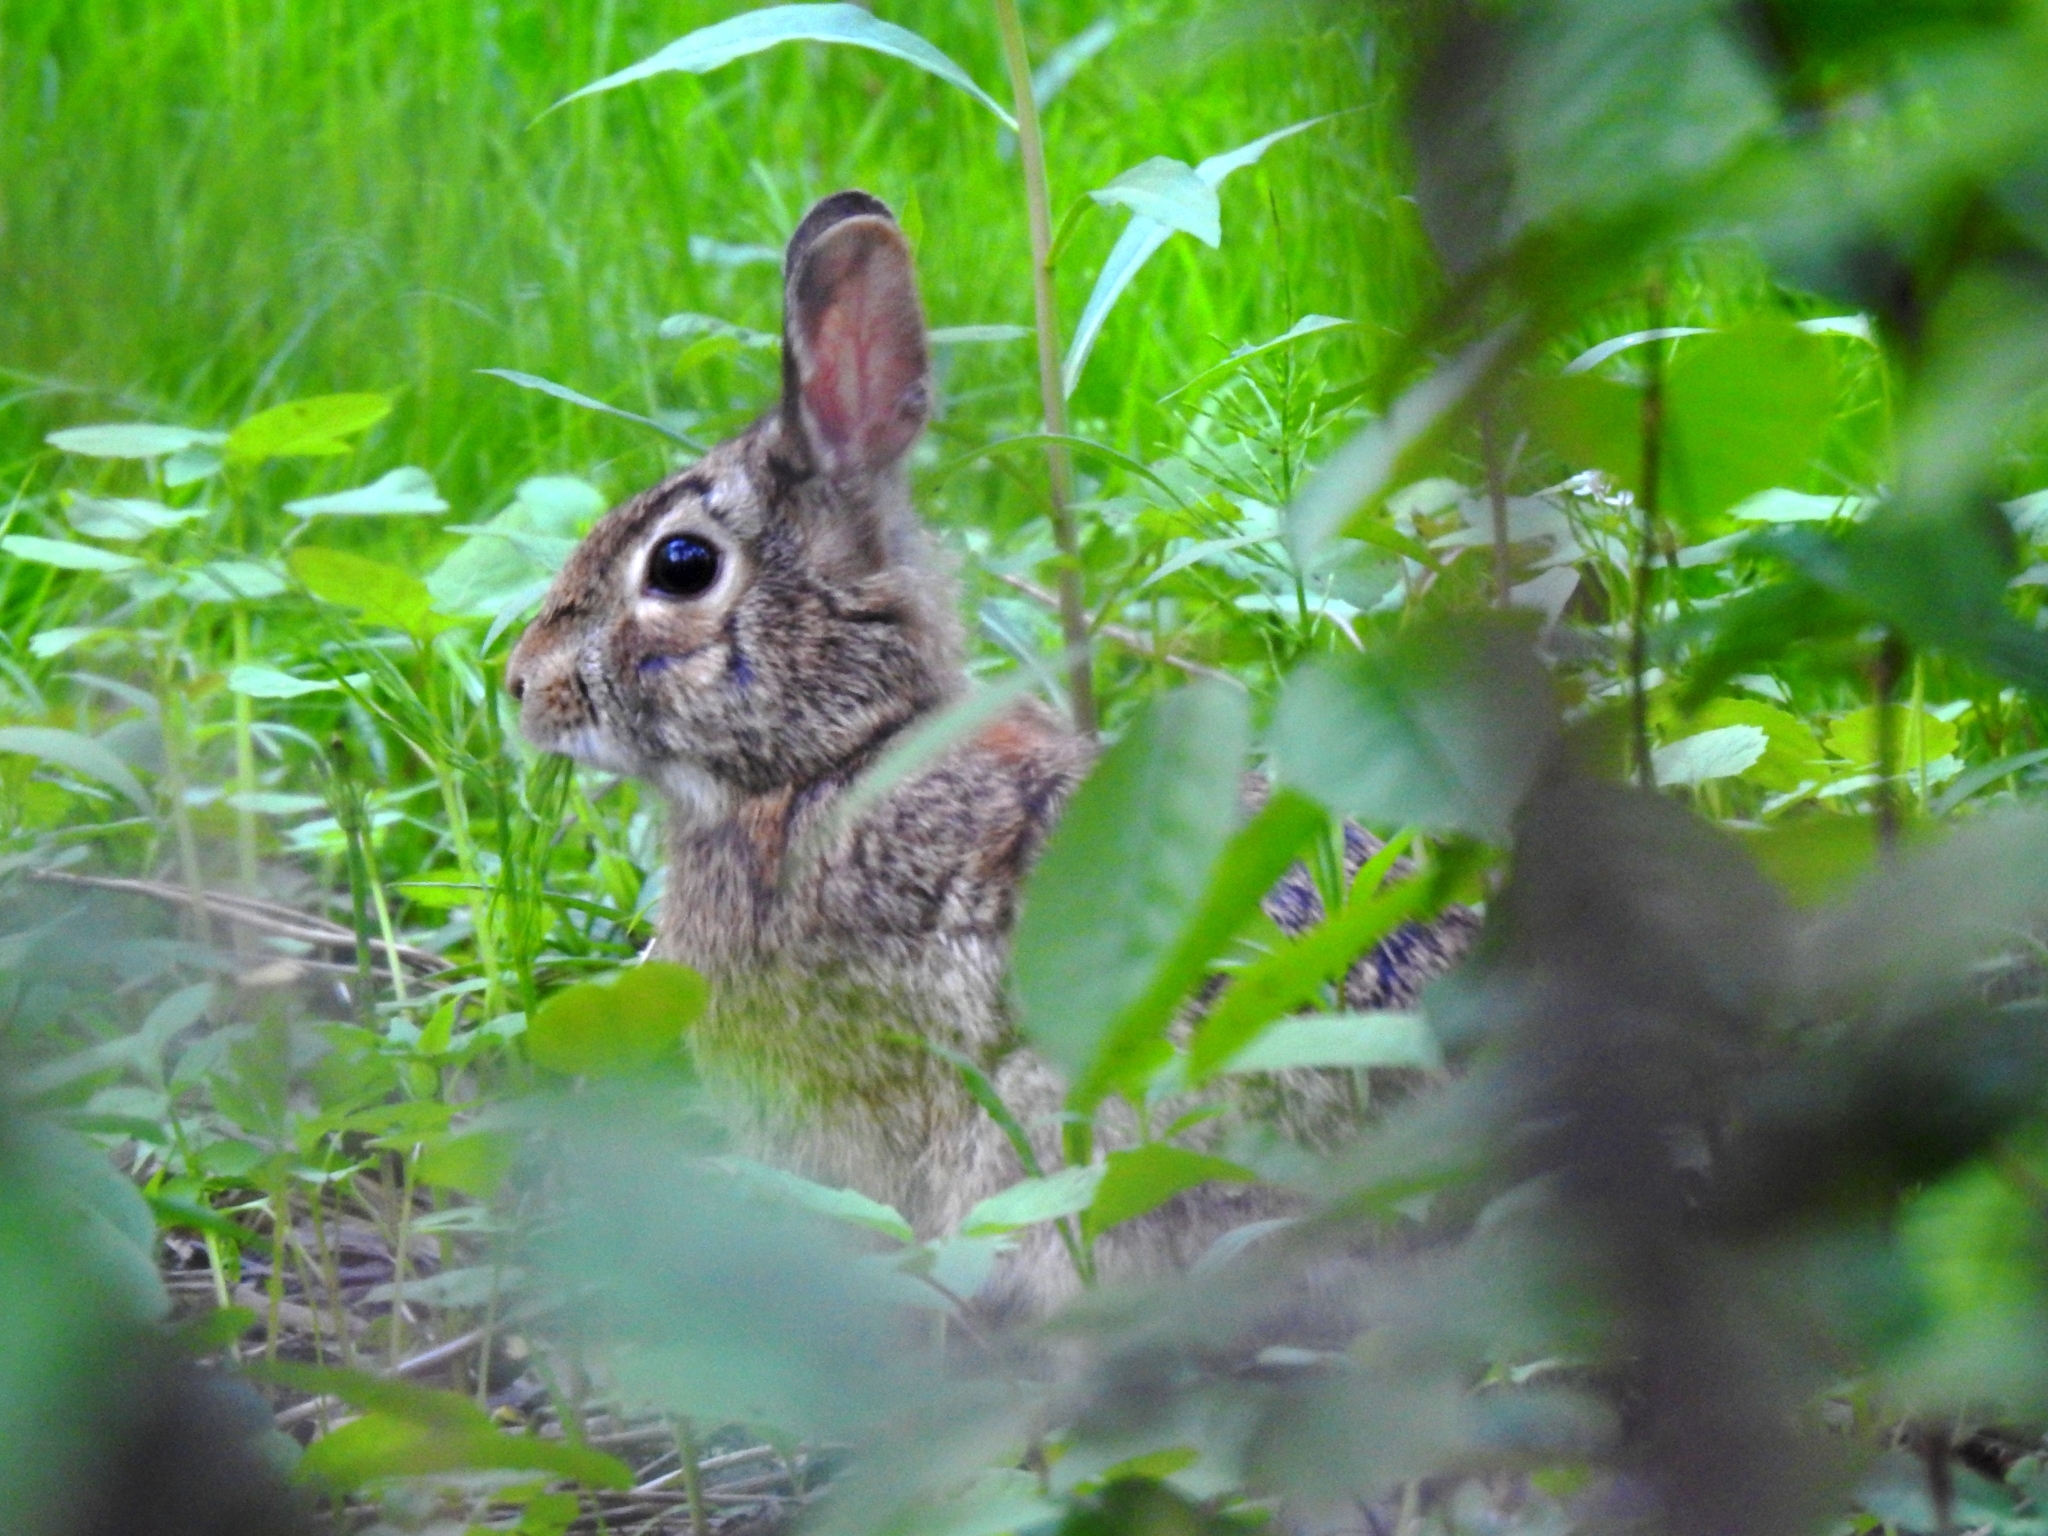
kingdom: Animalia
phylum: Chordata
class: Mammalia
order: Lagomorpha
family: Leporidae
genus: Sylvilagus
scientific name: Sylvilagus floridanus
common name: Eastern cottontail
